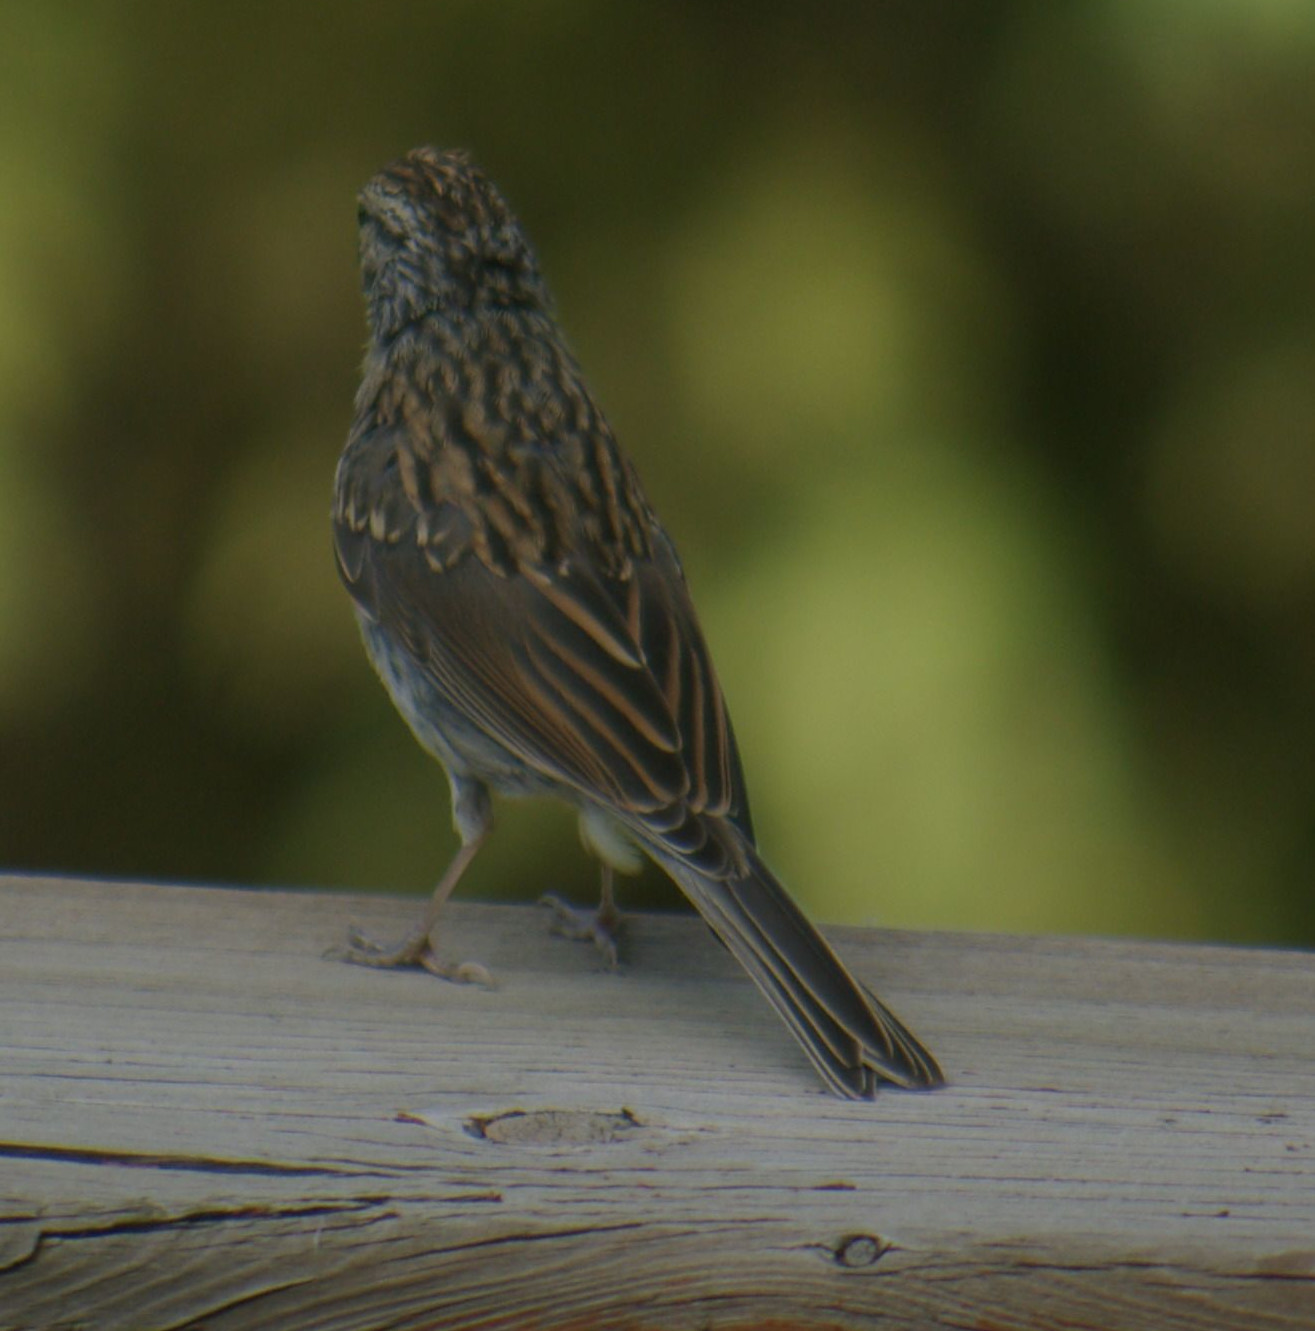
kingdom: Animalia
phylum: Chordata
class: Aves
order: Passeriformes
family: Passerellidae
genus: Spizella
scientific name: Spizella passerina
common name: Chipping sparrow
